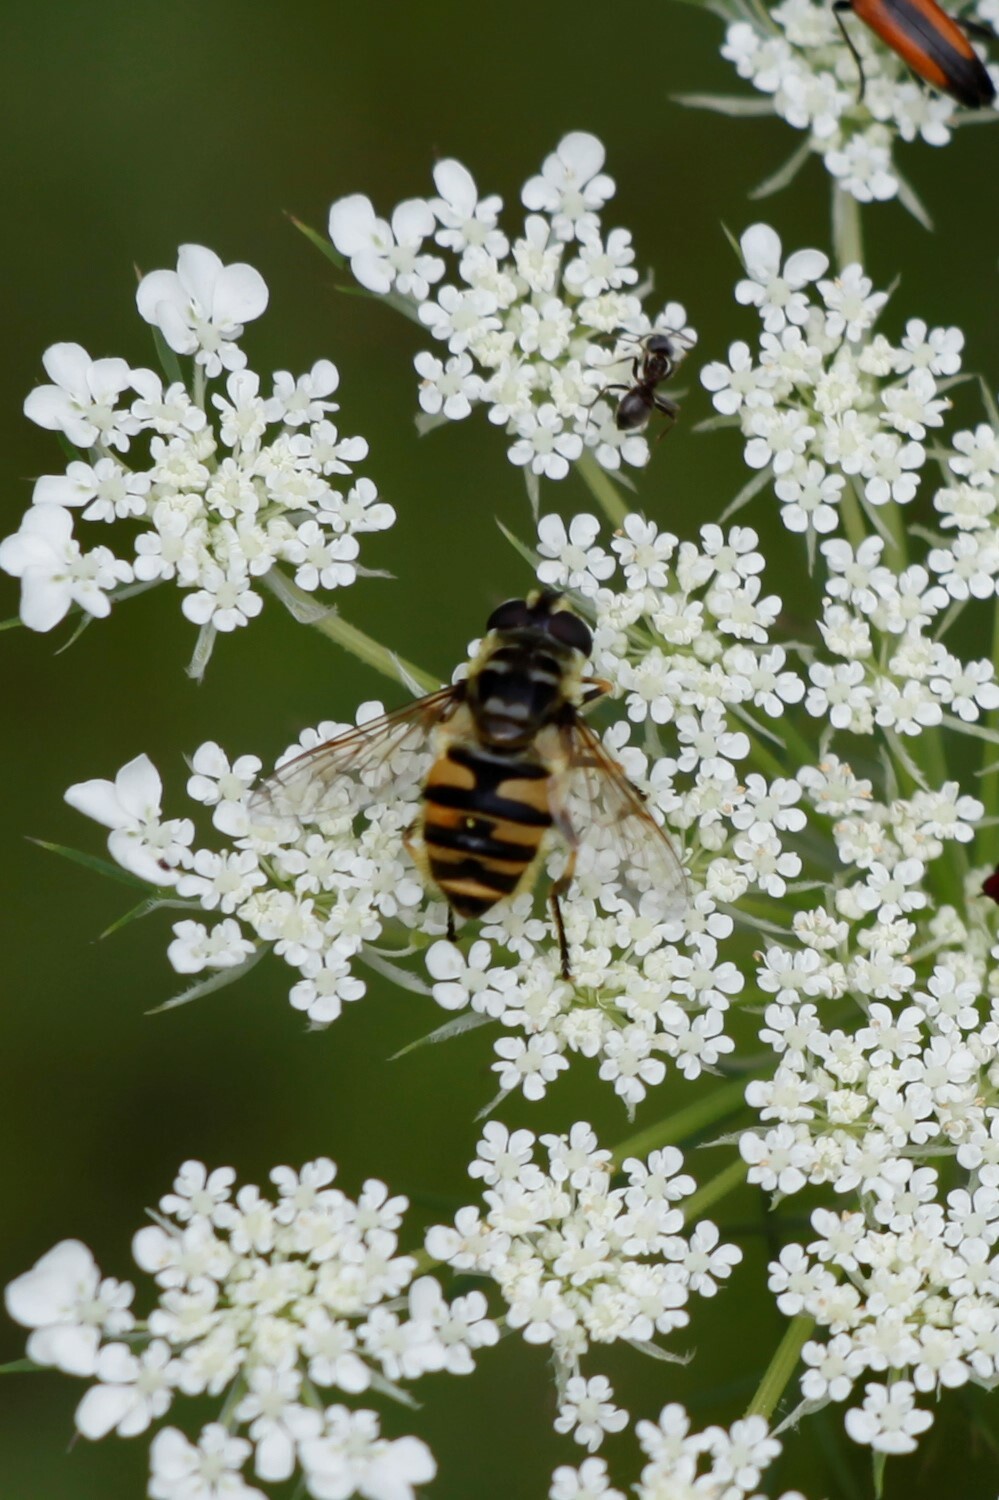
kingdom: Animalia
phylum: Arthropoda
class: Insecta
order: Diptera
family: Syrphidae
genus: Myathropa
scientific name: Myathropa florea
